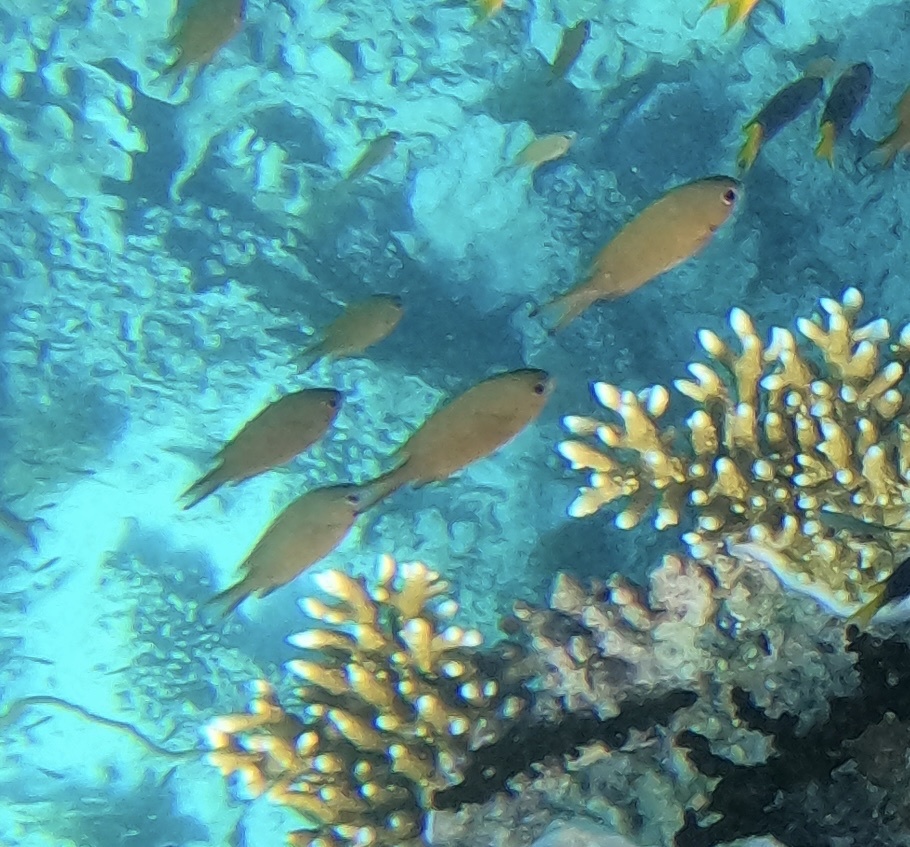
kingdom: Animalia
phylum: Chordata
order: Perciformes
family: Pomacentridae
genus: Chromis
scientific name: Chromis weberi
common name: Weber's chromis
